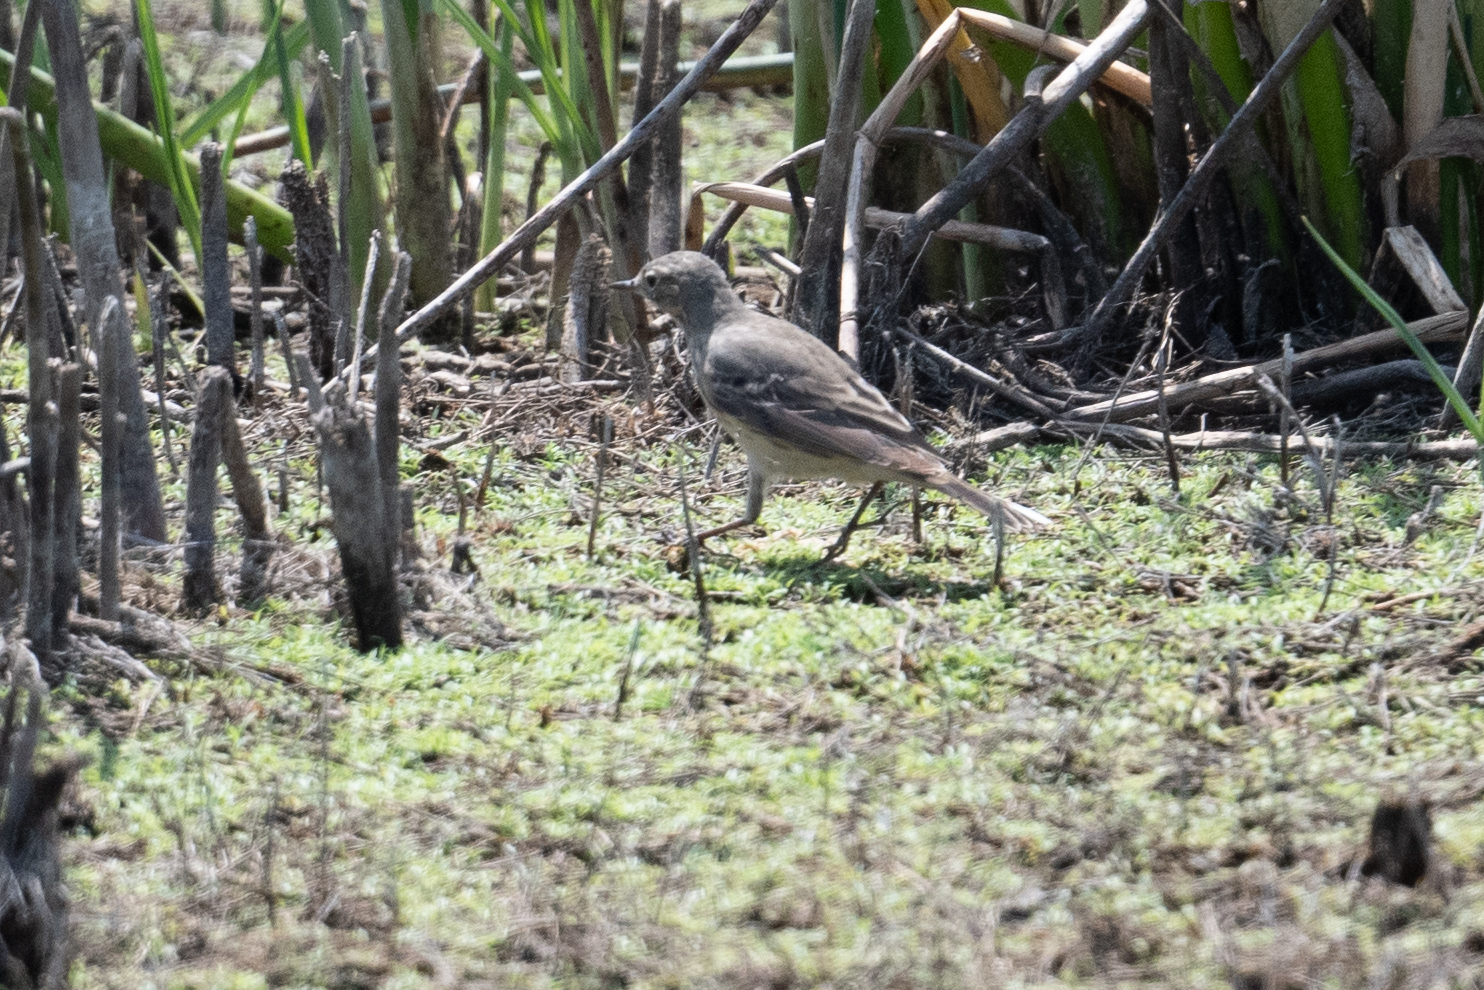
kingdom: Animalia
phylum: Chordata
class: Aves
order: Passeriformes
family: Motacillidae
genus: Anthus
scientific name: Anthus rubescens
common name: Buff-bellied pipit
